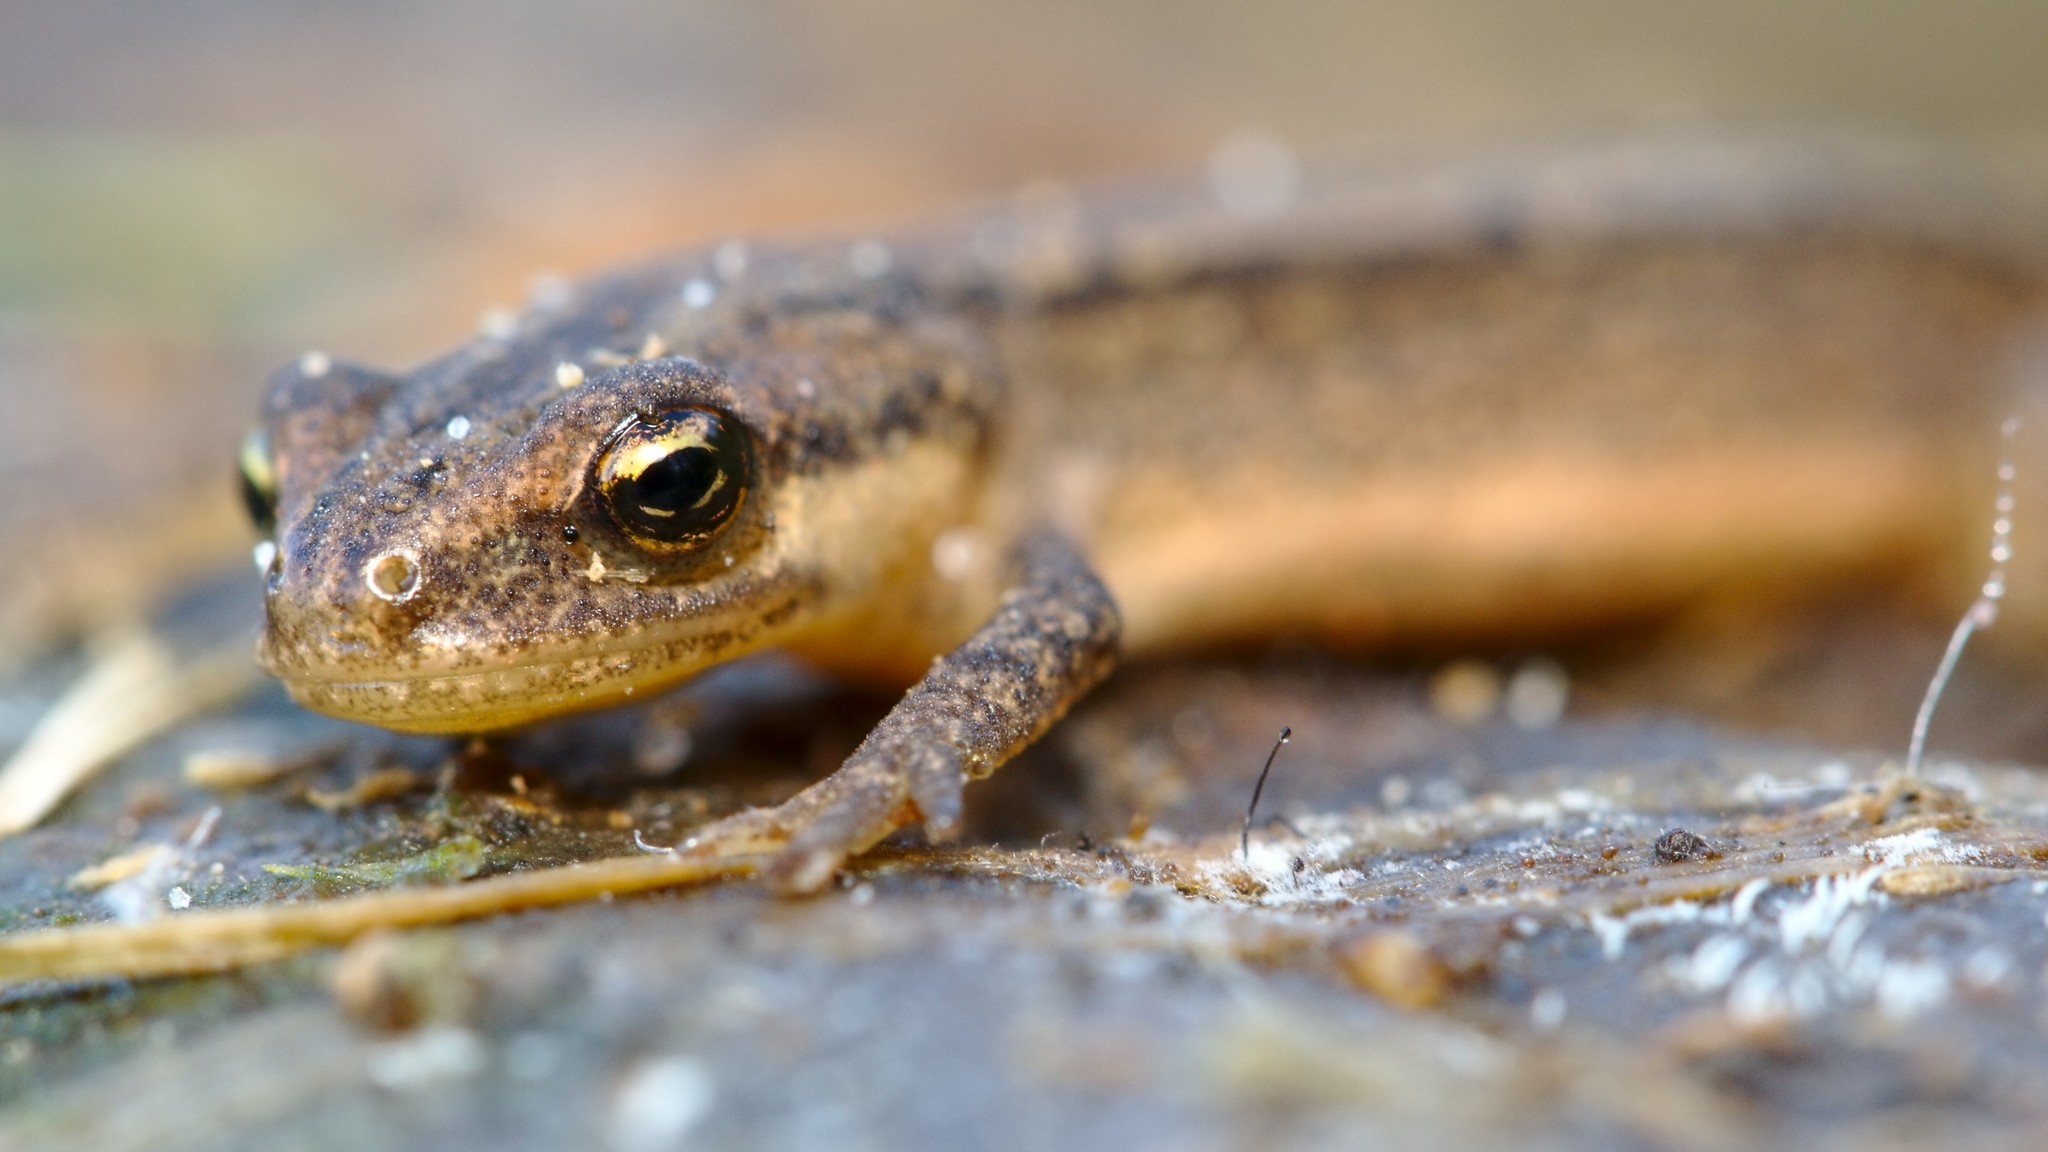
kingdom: Animalia
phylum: Chordata
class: Amphibia
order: Caudata
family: Salamandridae
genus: Lissotriton
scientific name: Lissotriton vulgaris
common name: Smooth newt
